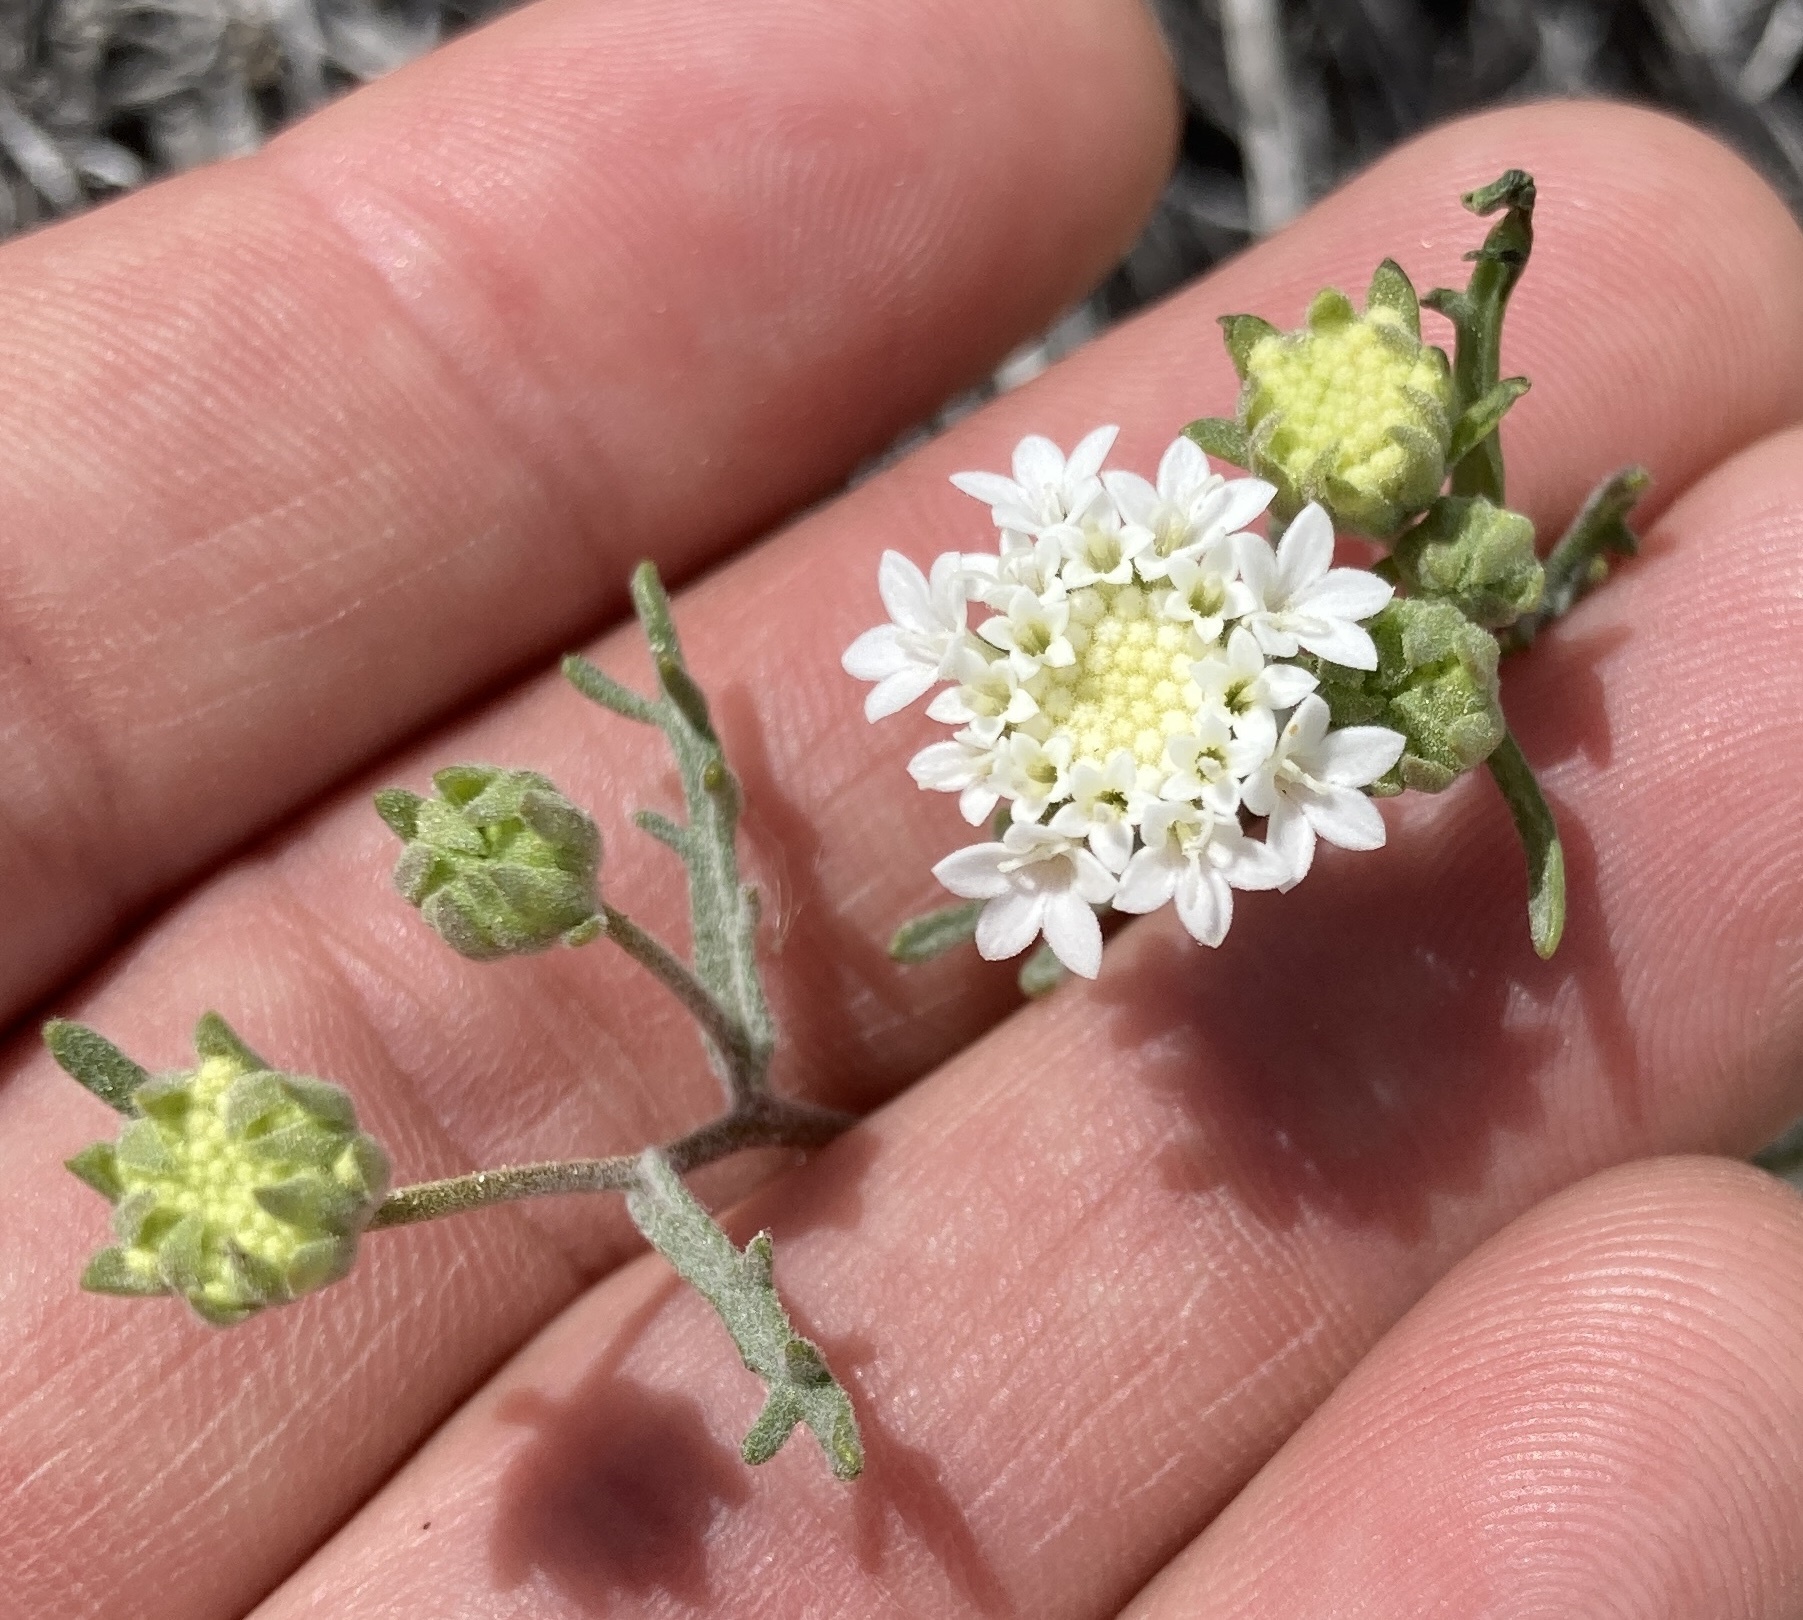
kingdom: Plantae
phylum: Tracheophyta
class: Magnoliopsida
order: Asterales
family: Asteraceae
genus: Chaenactis
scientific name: Chaenactis stevioides
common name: Desert pincushion
